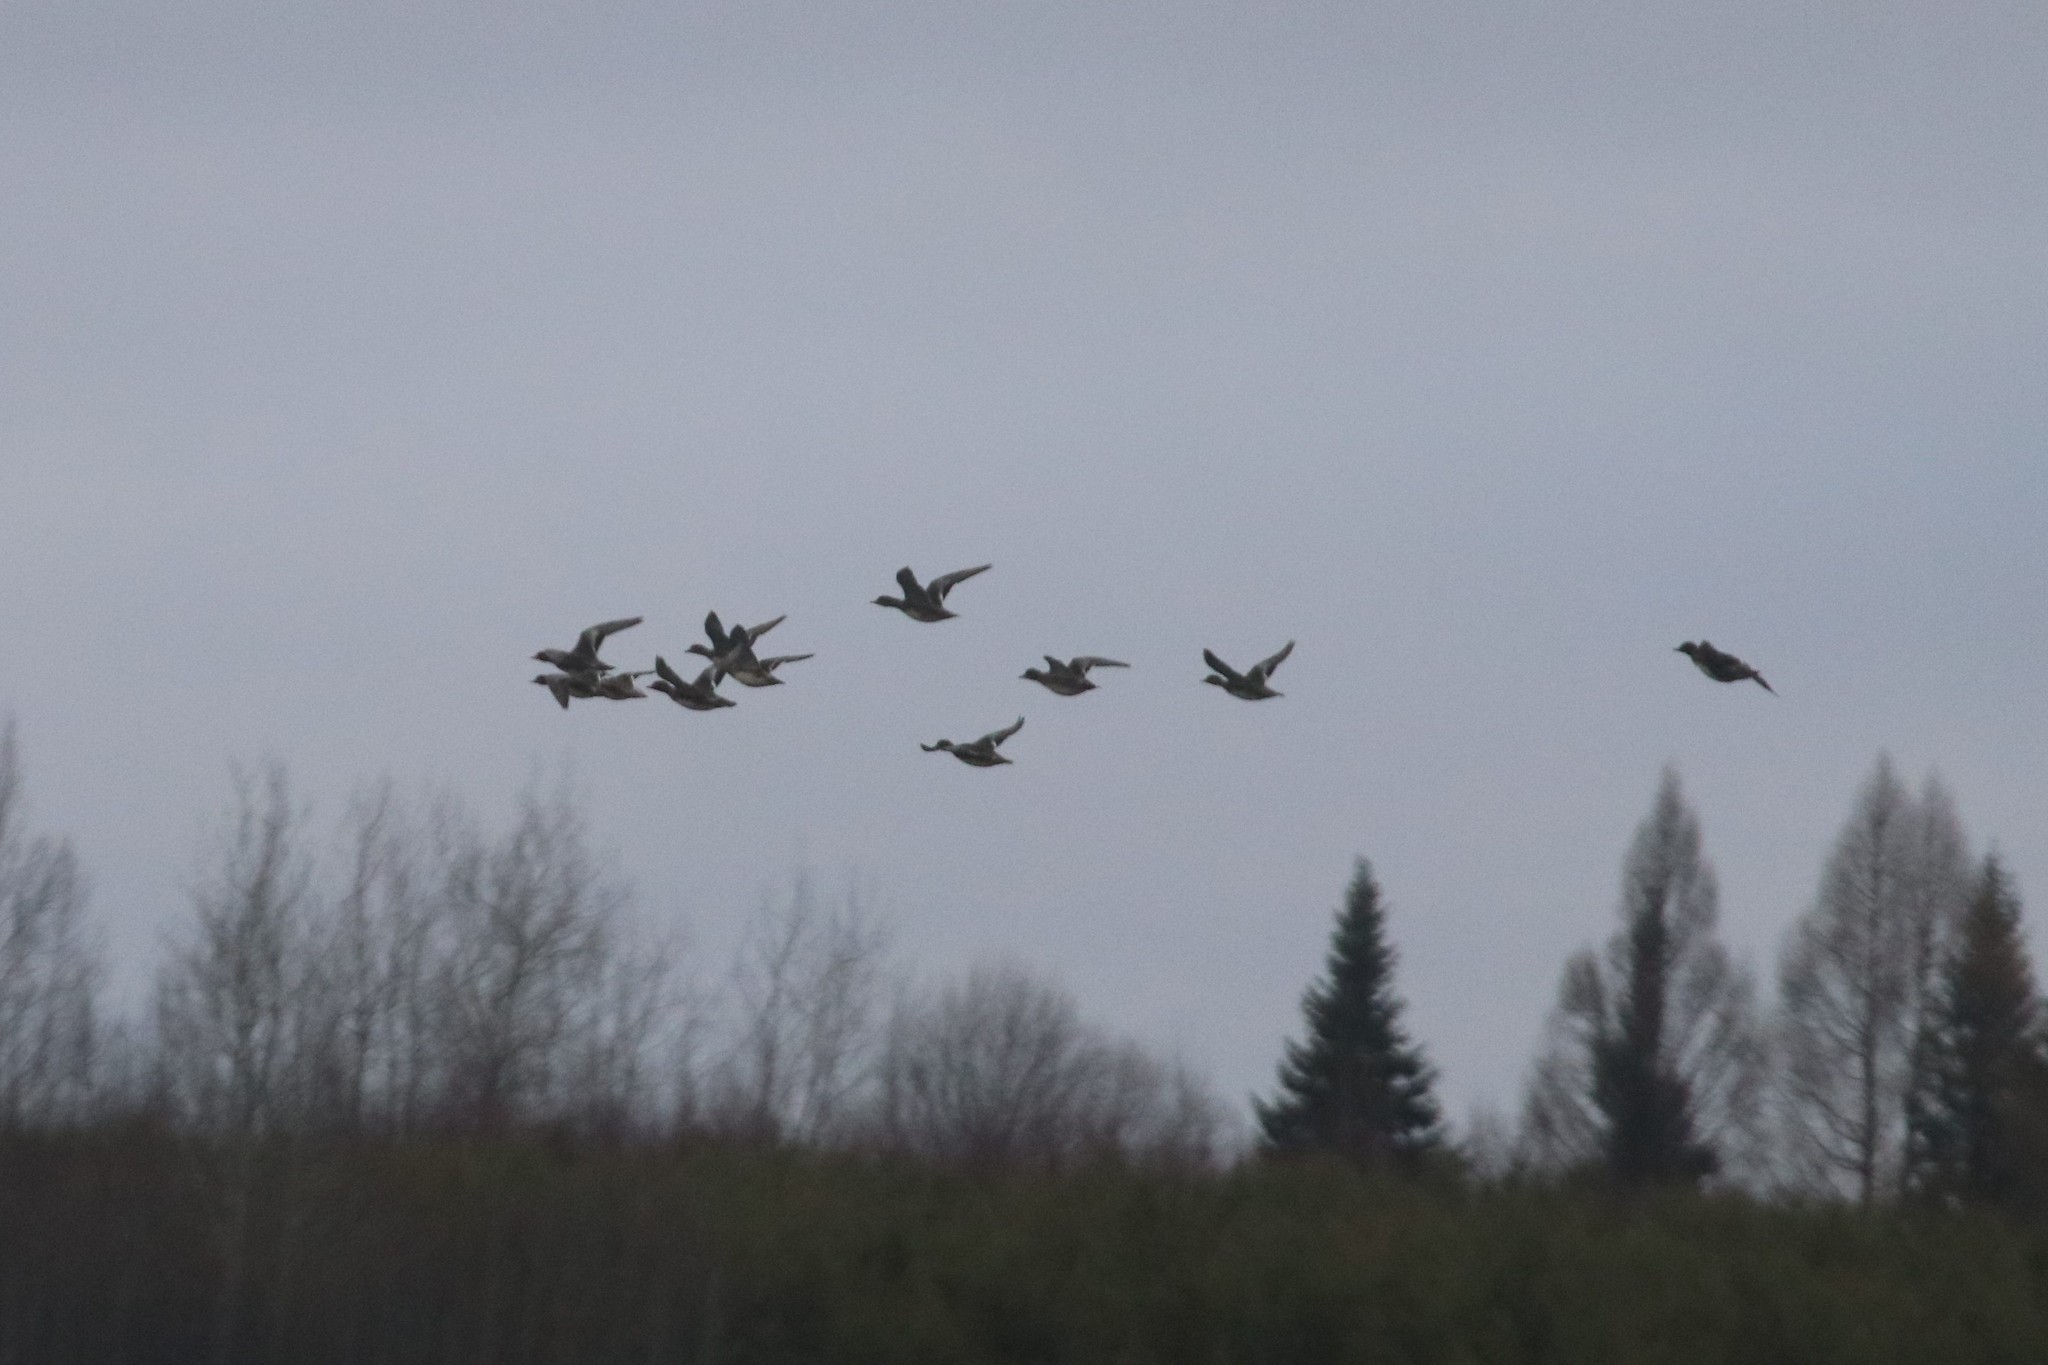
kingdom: Animalia
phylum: Chordata
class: Aves
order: Anseriformes
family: Anatidae
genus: Mareca
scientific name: Mareca penelope
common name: Eurasian wigeon
